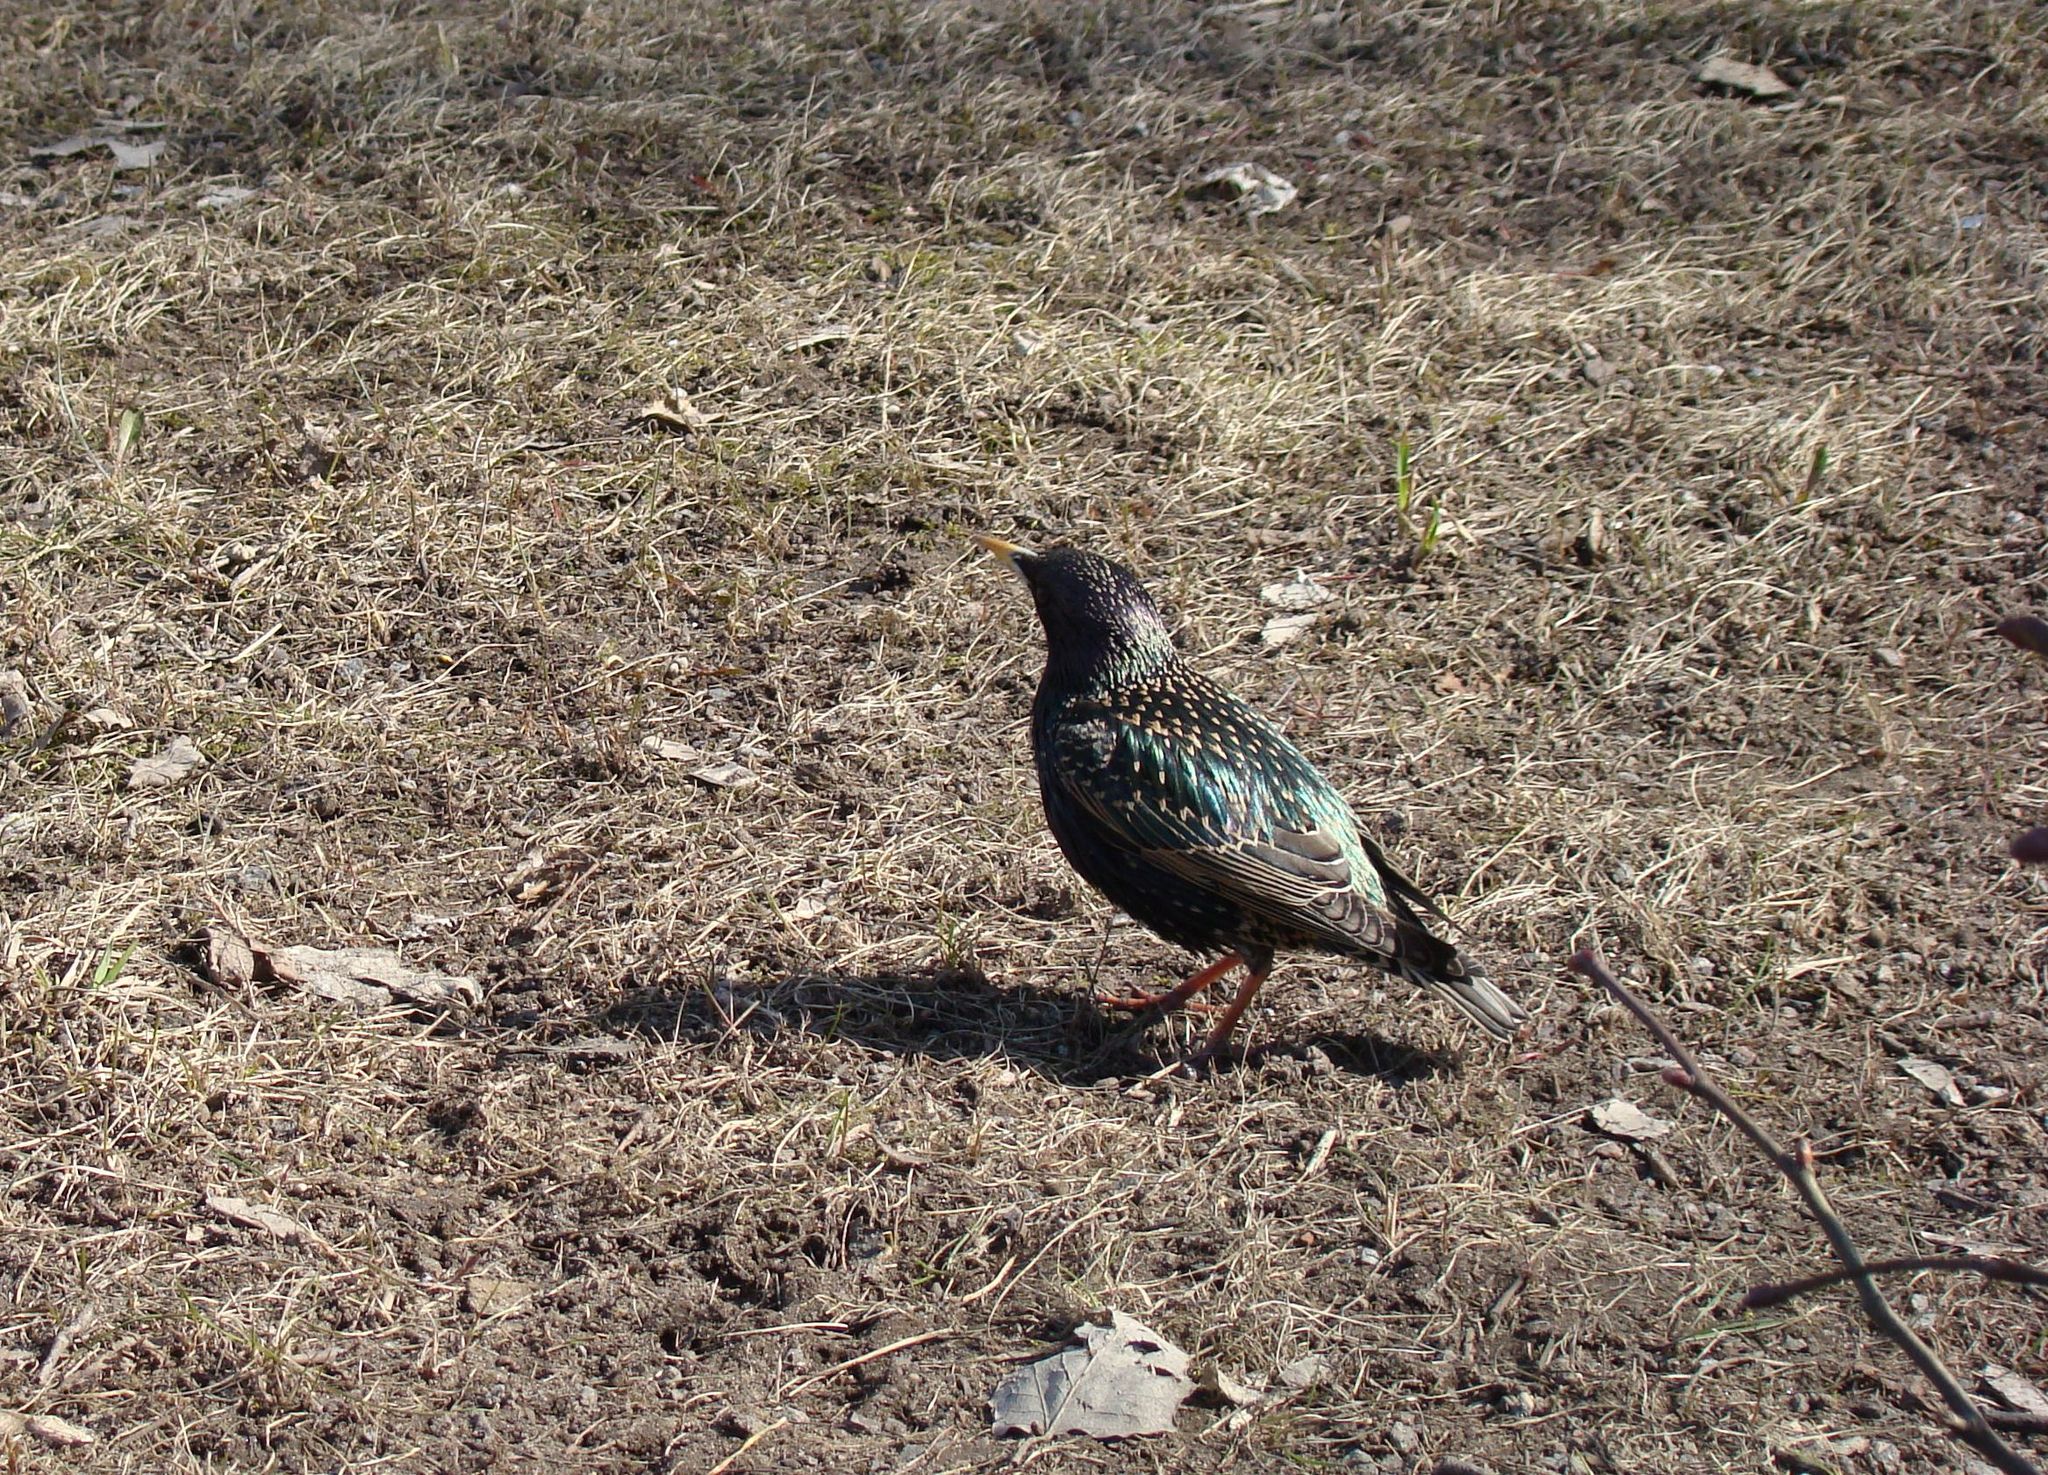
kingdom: Animalia
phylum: Chordata
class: Aves
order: Passeriformes
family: Sturnidae
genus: Sturnus
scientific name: Sturnus vulgaris
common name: Common starling
